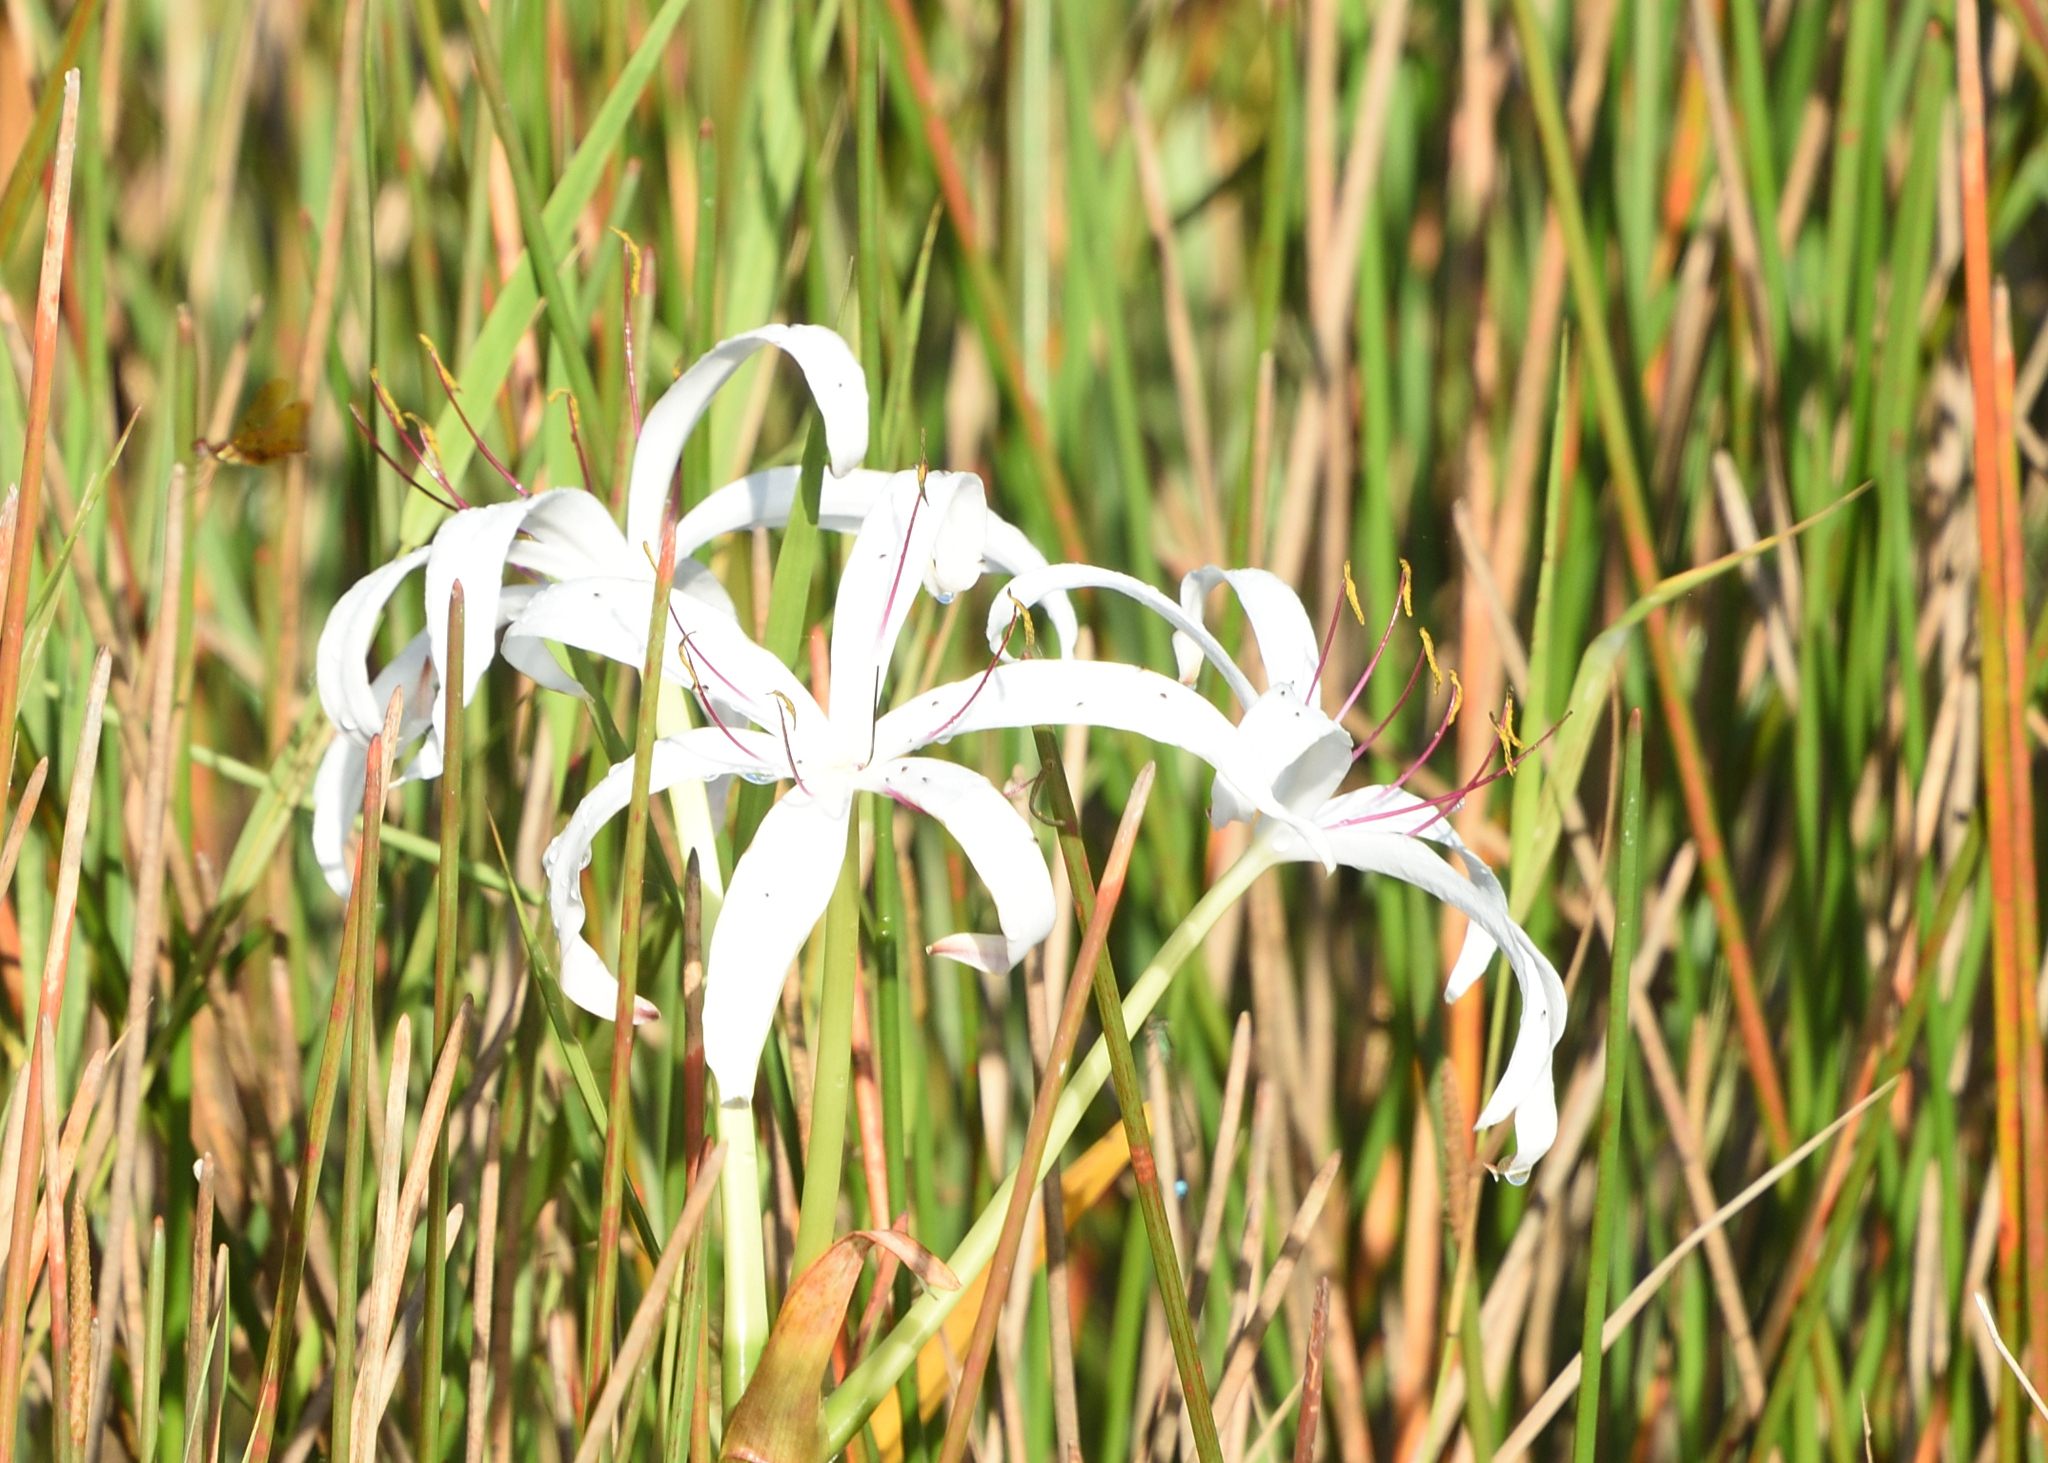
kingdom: Plantae
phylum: Tracheophyta
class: Liliopsida
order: Asparagales
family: Amaryllidaceae
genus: Crinum
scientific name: Crinum americanum
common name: Florida swamp-lily
